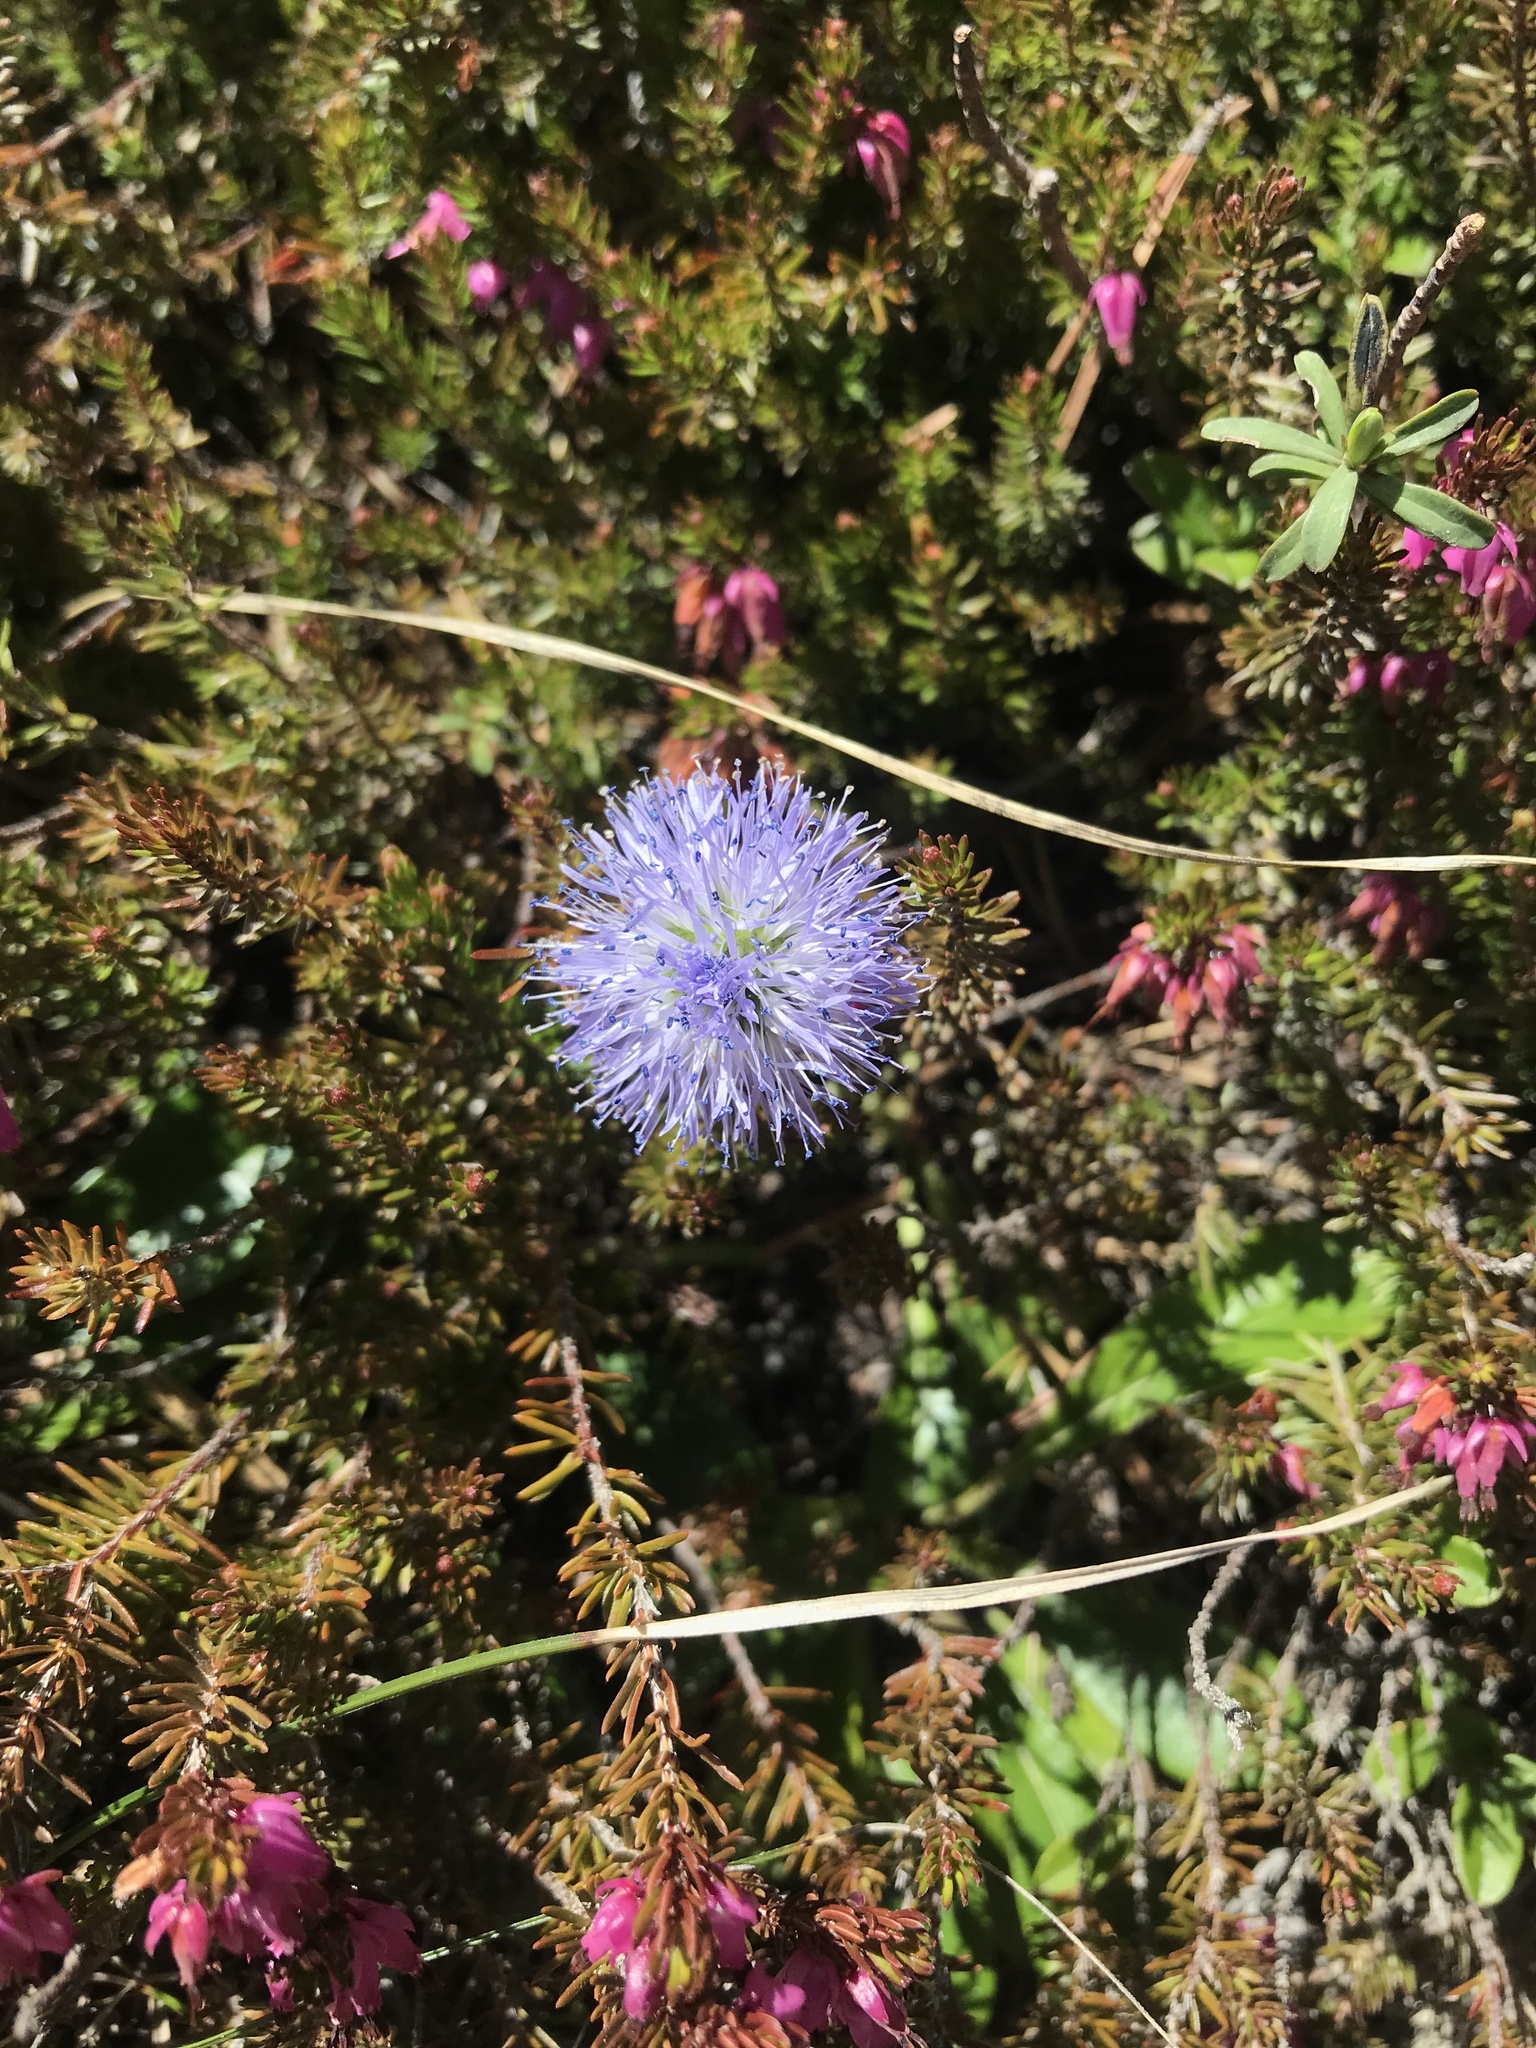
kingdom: Plantae
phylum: Tracheophyta
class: Magnoliopsida
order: Lamiales
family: Plantaginaceae
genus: Globularia
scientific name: Globularia cordifolia
